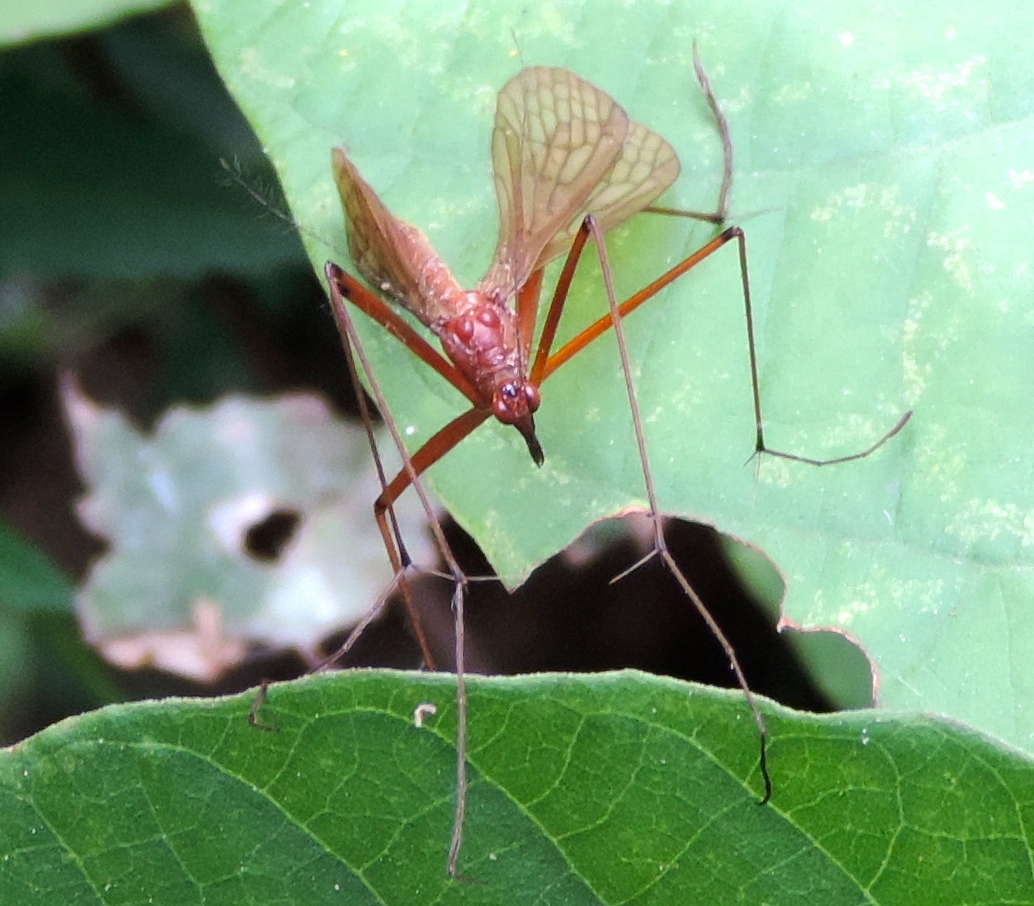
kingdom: Animalia
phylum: Arthropoda
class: Insecta
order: Mecoptera
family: Bittacidae
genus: Bittacus
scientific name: Bittacus mexicanus
